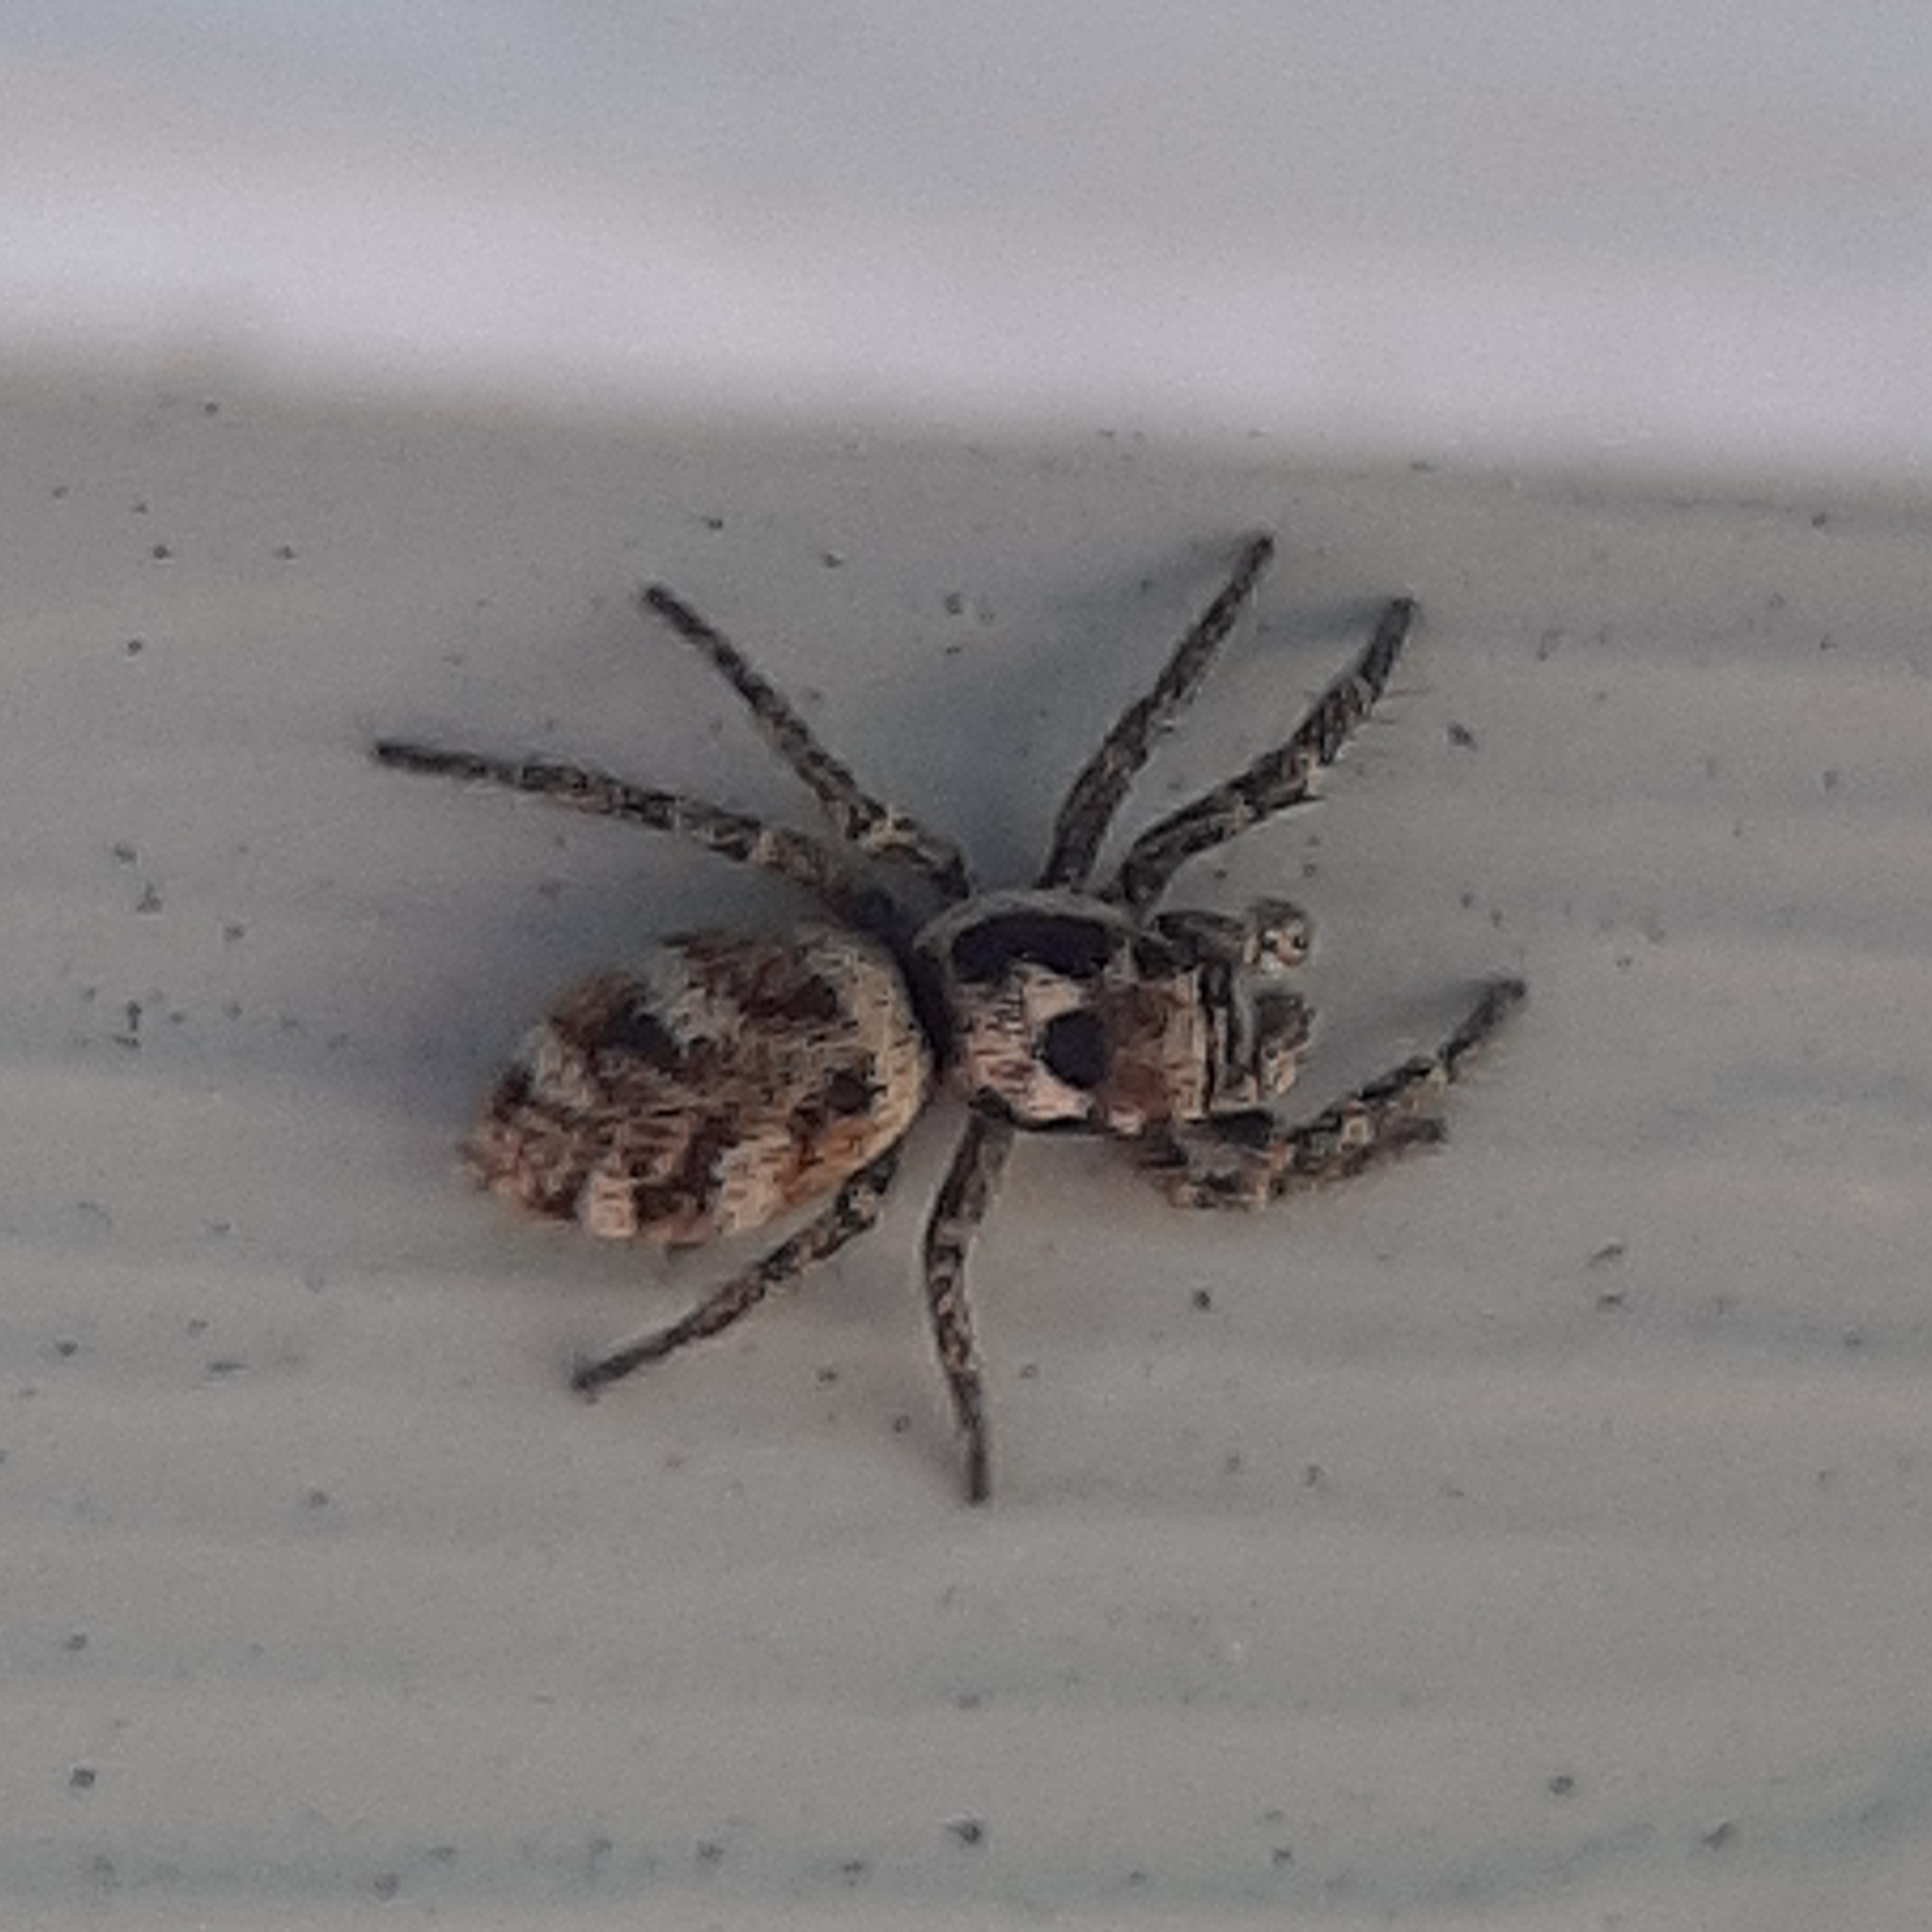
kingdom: Animalia
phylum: Arthropoda
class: Arachnida
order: Araneae
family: Salticidae
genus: Salticus
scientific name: Salticus scenicus
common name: Zebra jumper
